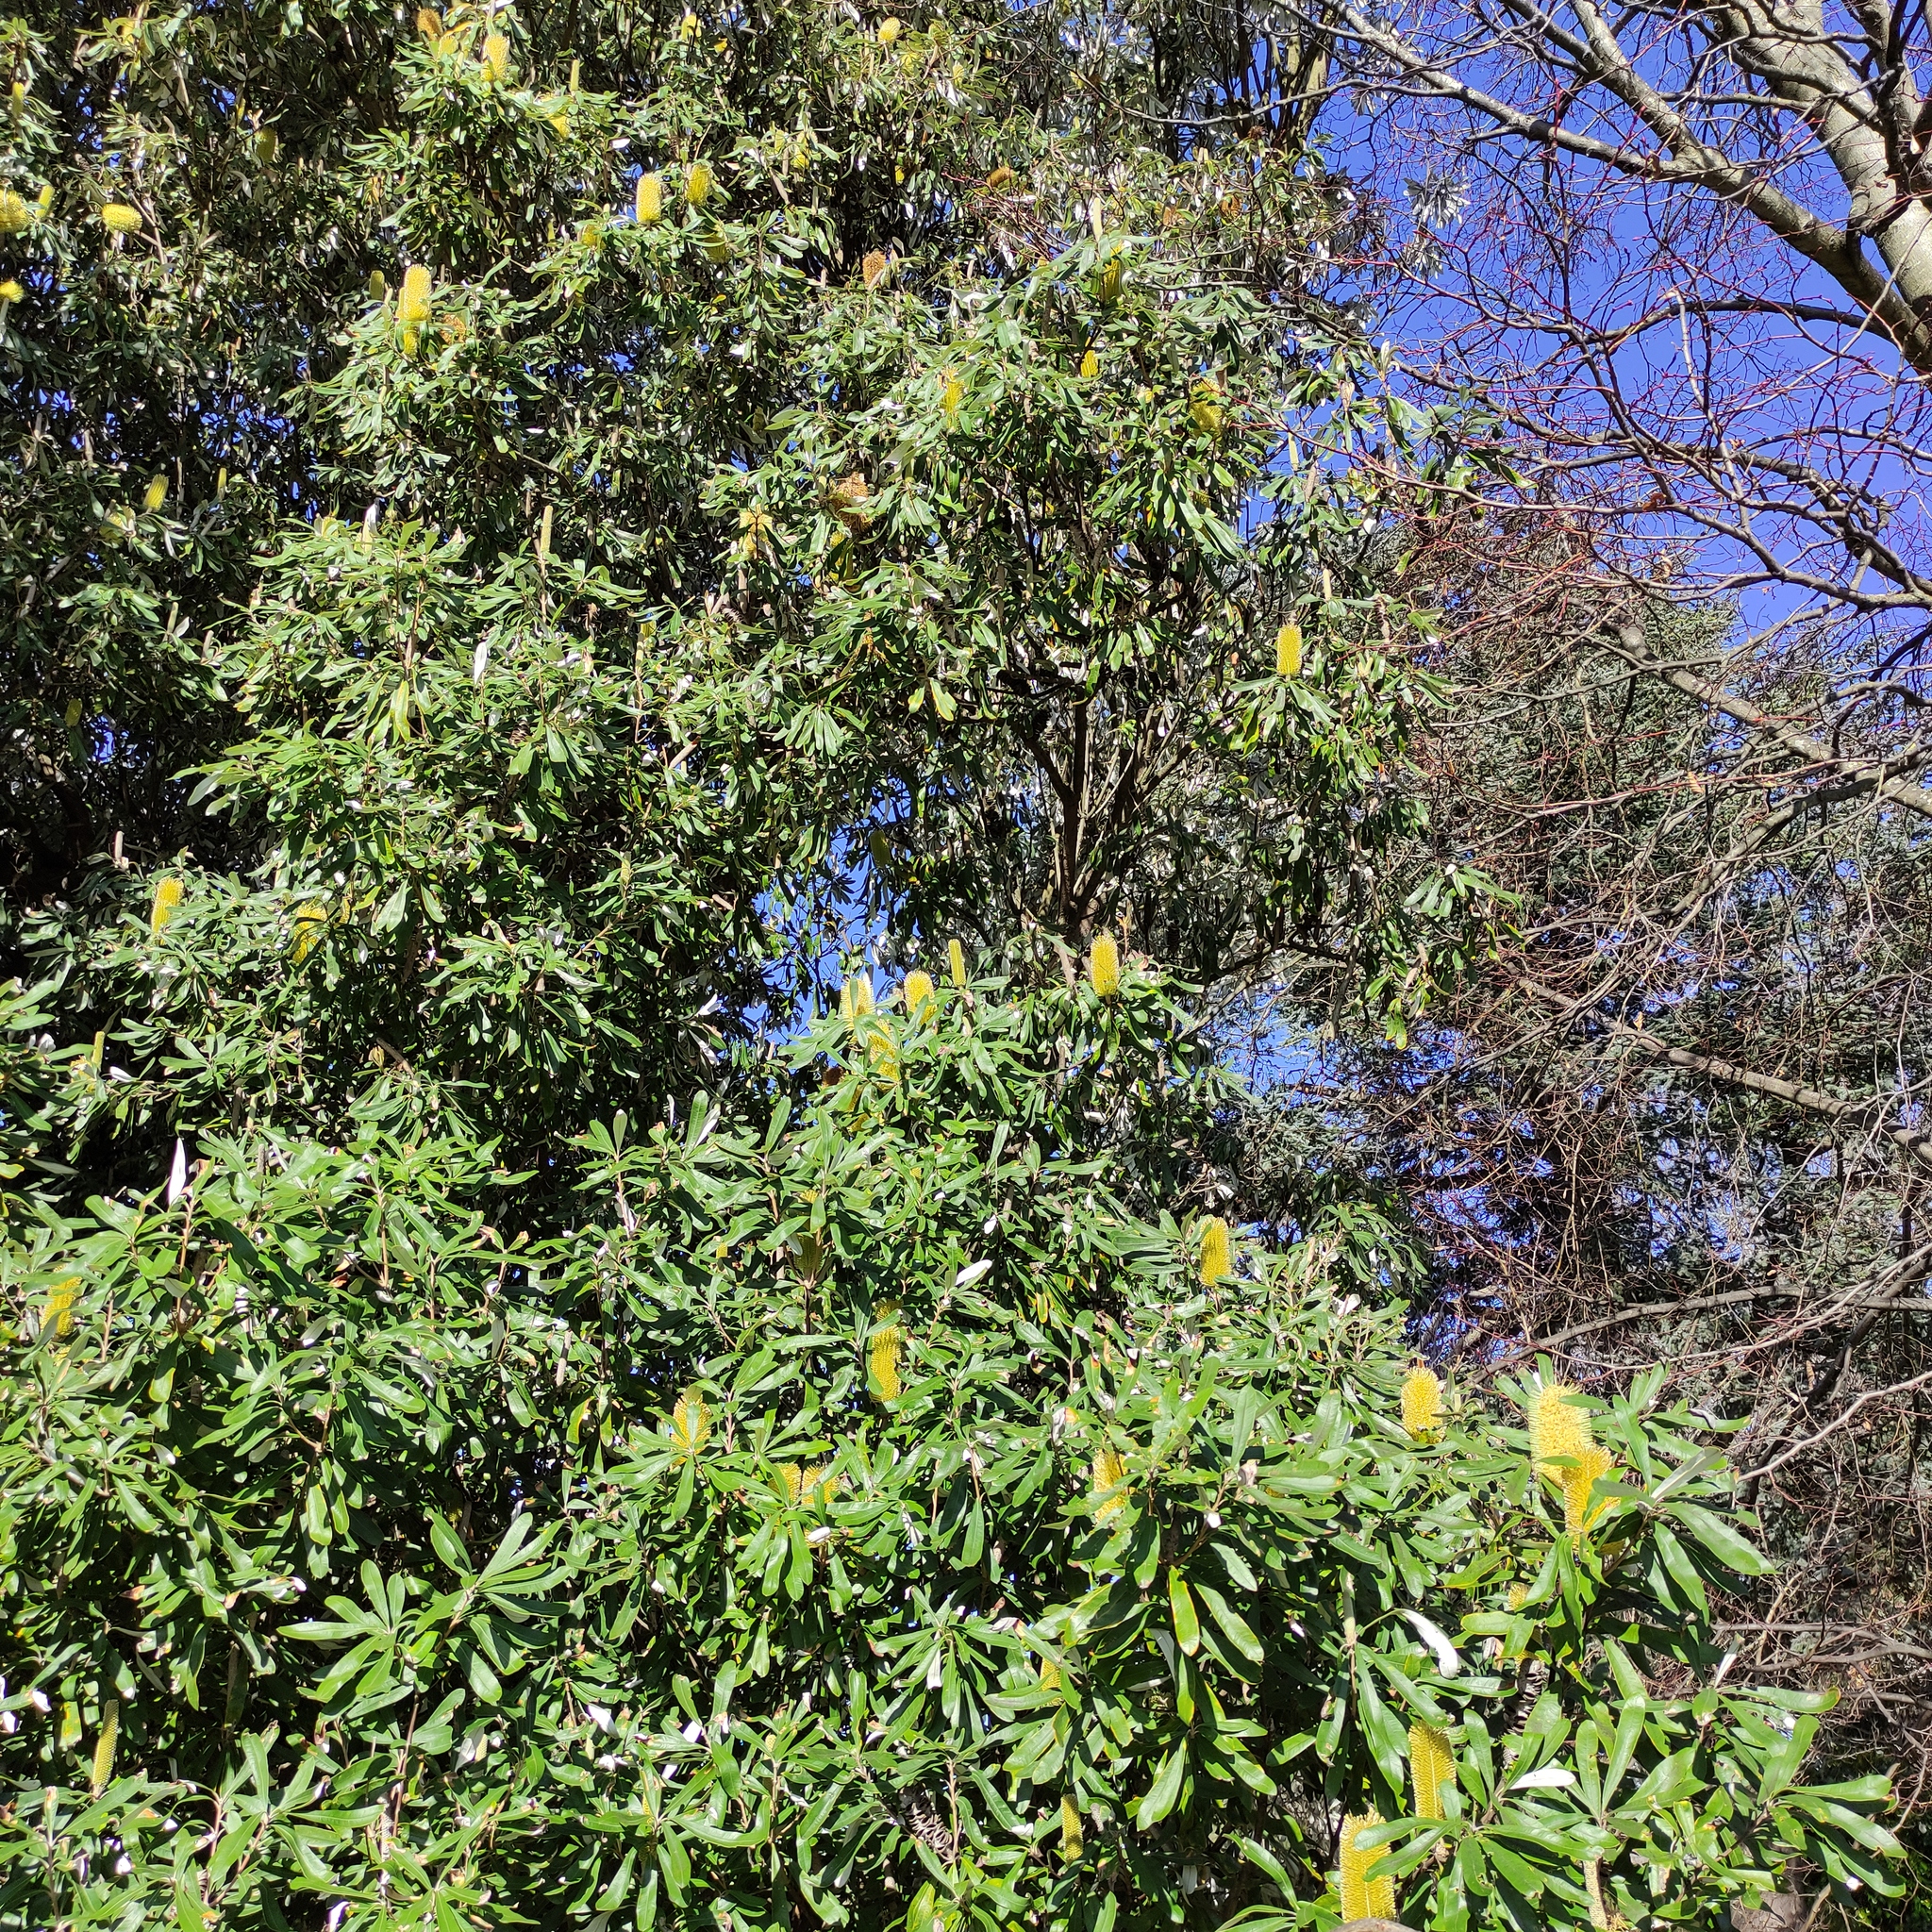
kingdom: Plantae
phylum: Tracheophyta
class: Magnoliopsida
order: Proteales
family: Proteaceae
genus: Banksia
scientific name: Banksia integrifolia
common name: White-honeysuckle
